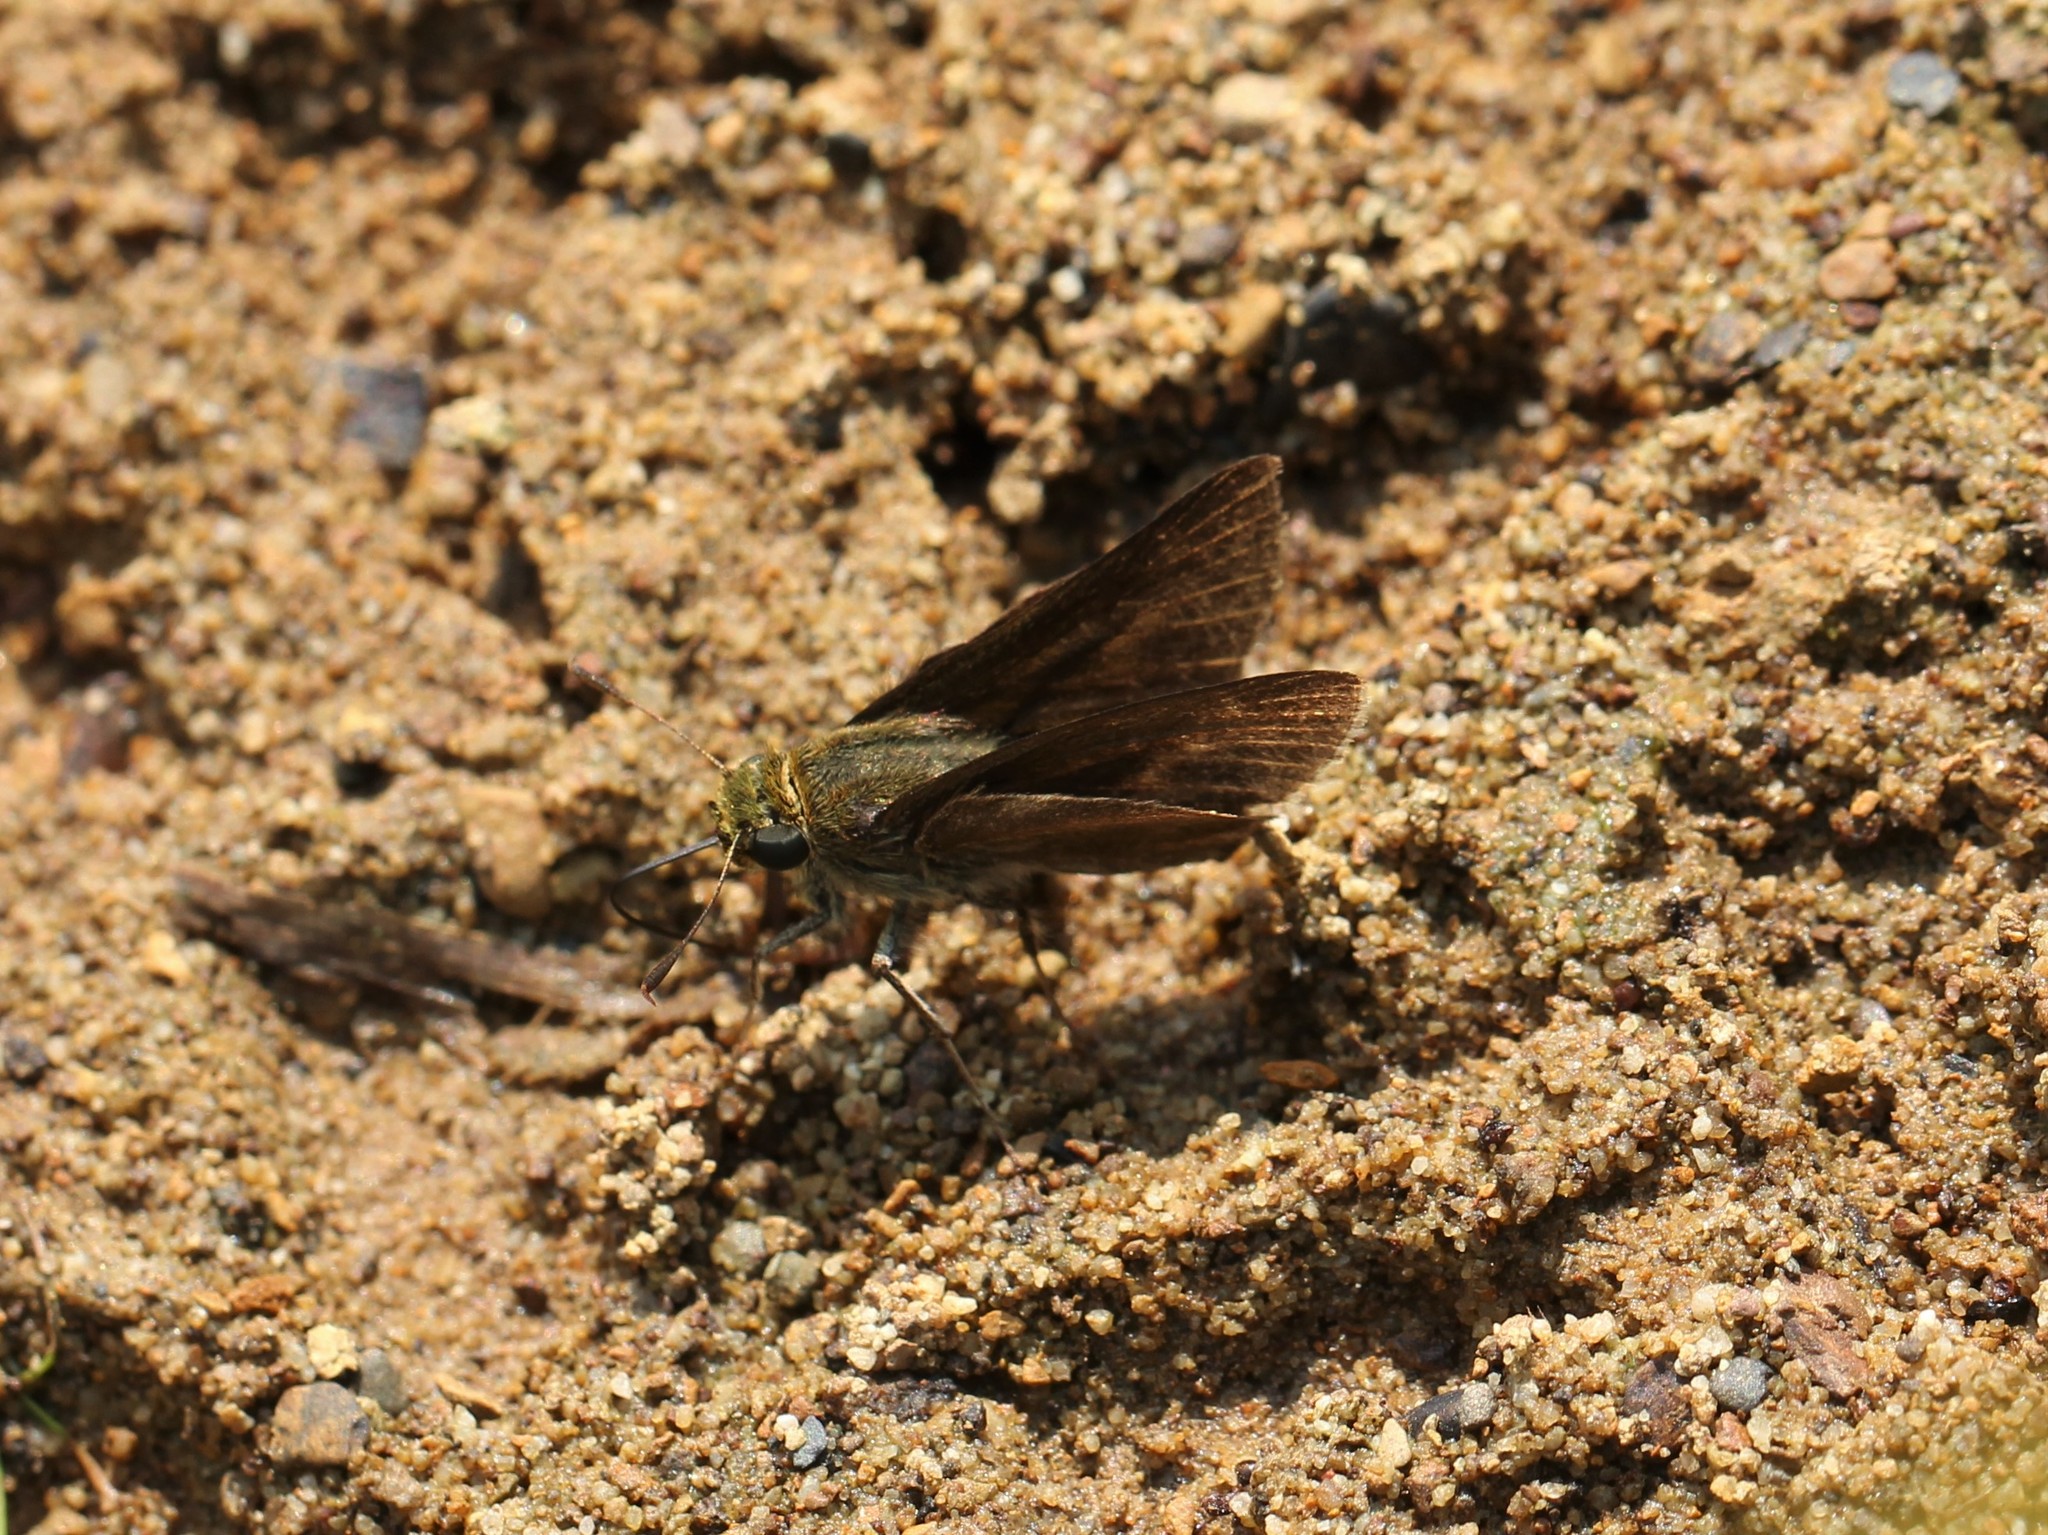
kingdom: Animalia
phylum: Arthropoda
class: Insecta
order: Lepidoptera
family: Hesperiidae
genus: Euphyes
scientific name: Euphyes vestris
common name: Dun skipper
